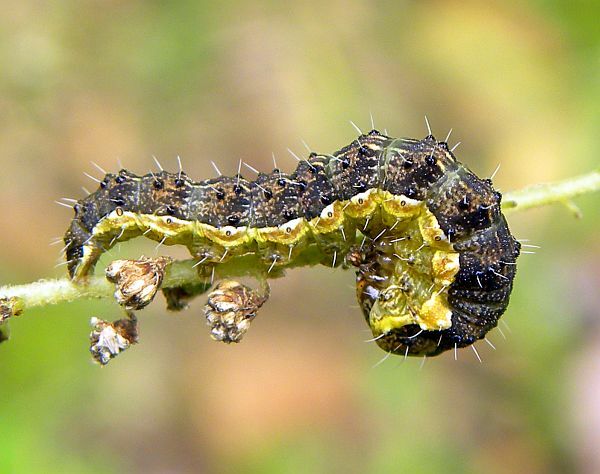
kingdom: Animalia
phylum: Arthropoda
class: Insecta
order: Lepidoptera
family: Noctuidae
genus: Schinia
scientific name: Schinia rivulosa
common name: Scarce meal-moth
